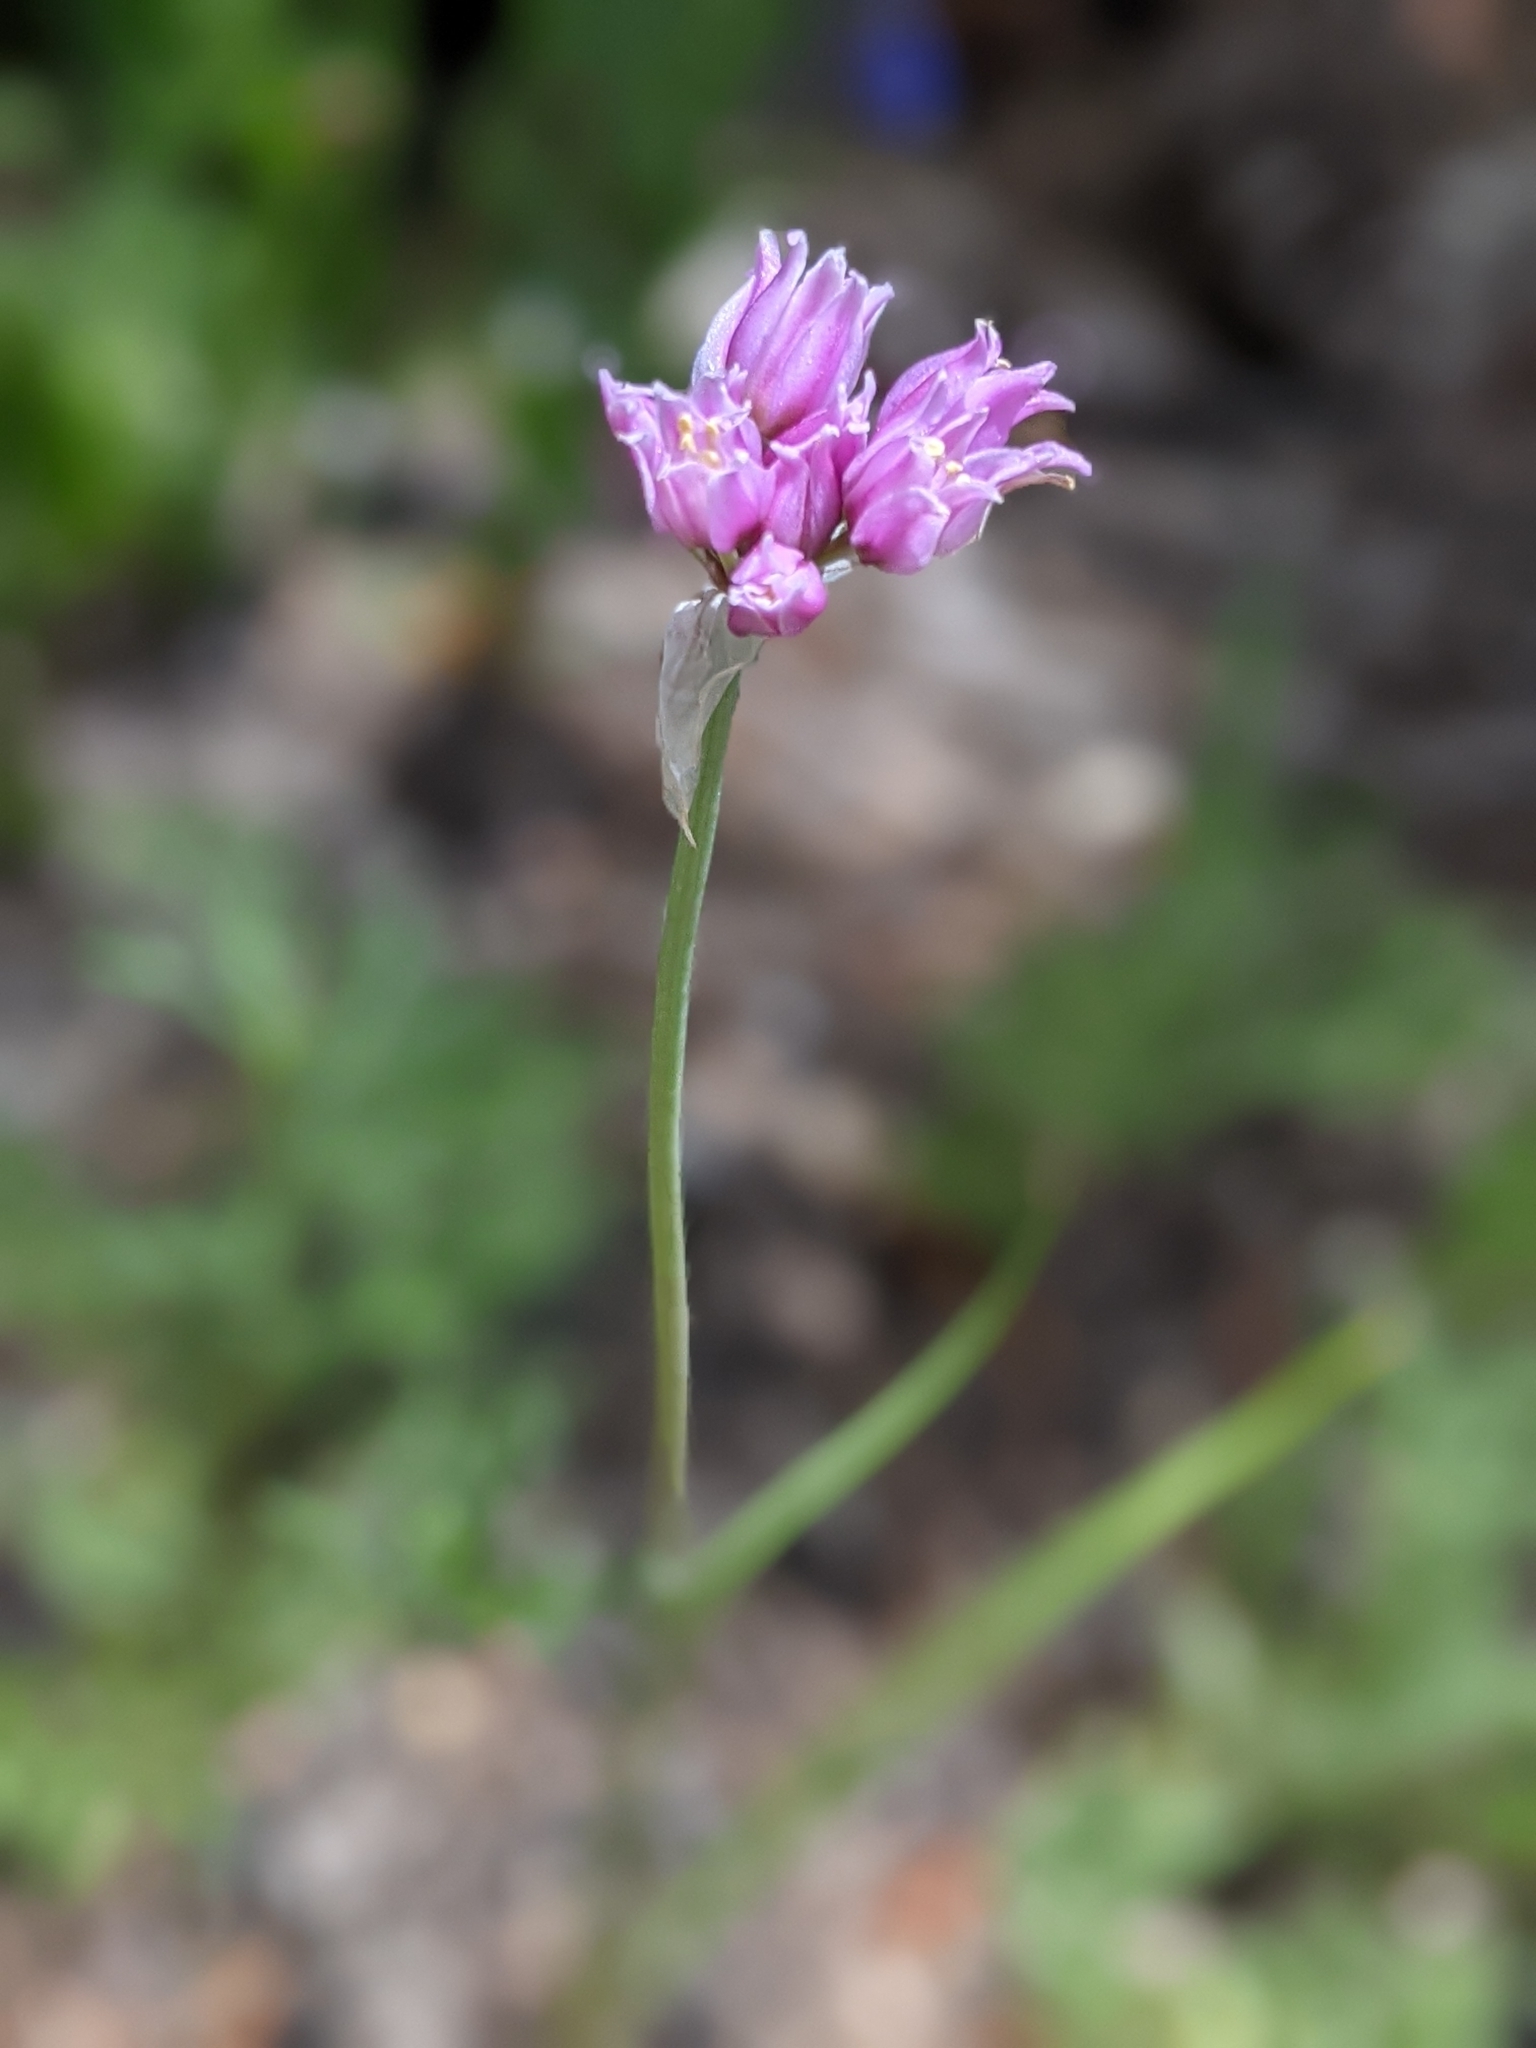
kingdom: Plantae
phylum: Tracheophyta
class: Liliopsida
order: Asparagales
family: Amaryllidaceae
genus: Allium
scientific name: Allium geyeri
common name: Geyer's onion
